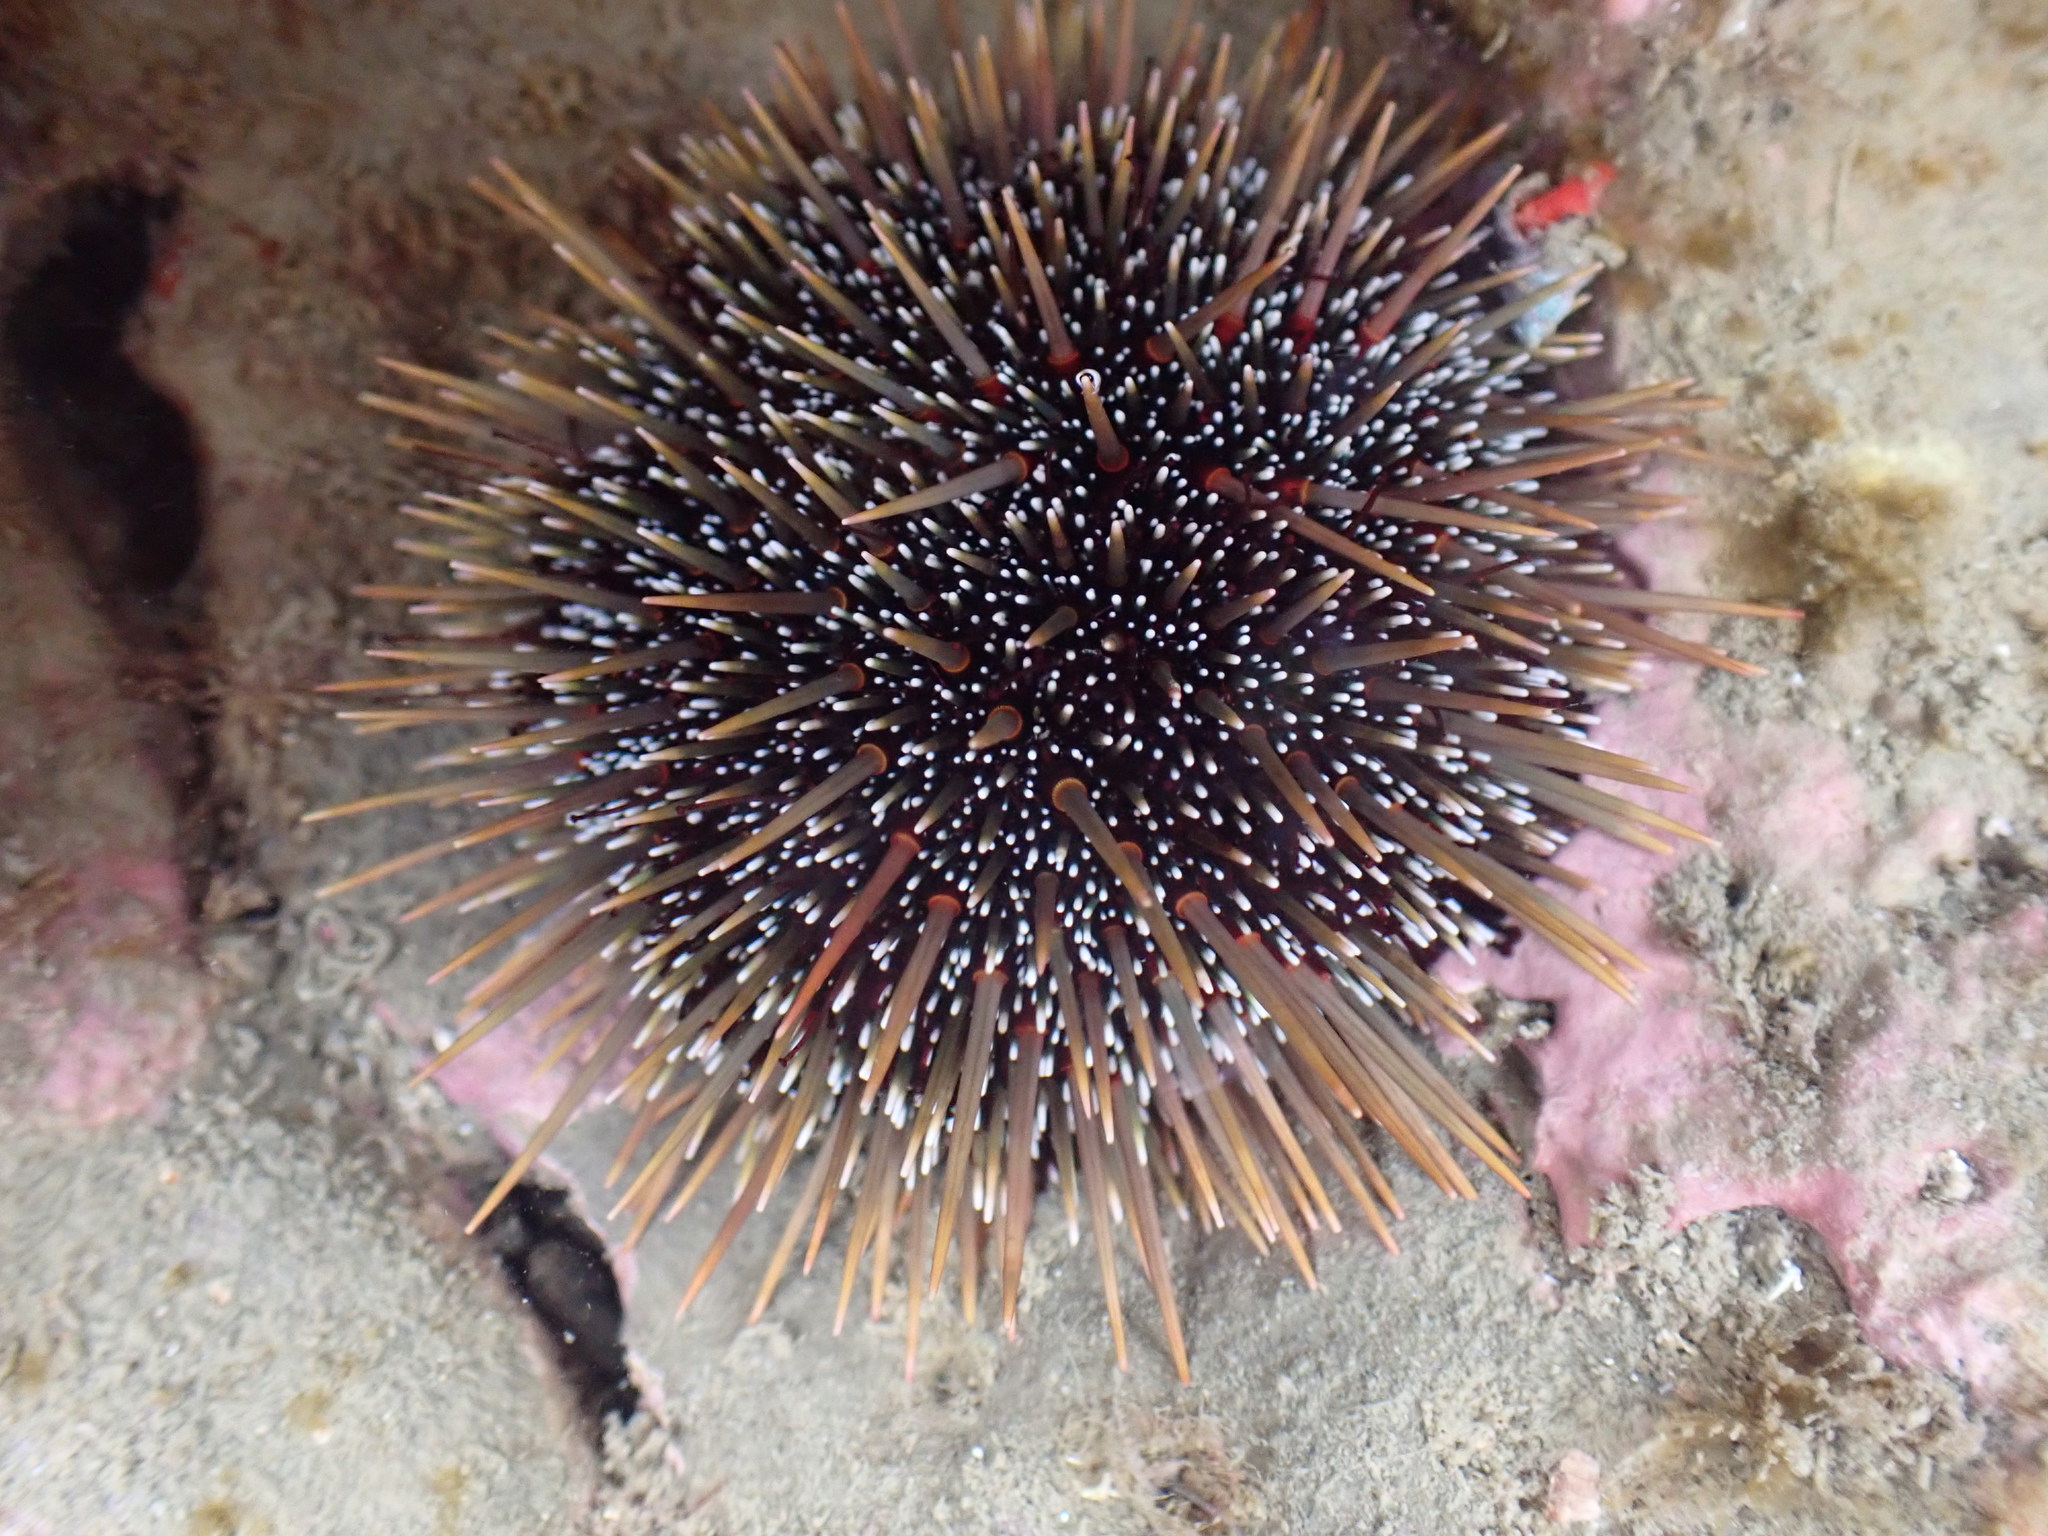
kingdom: Animalia
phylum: Echinodermata
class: Echinoidea
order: Camarodonta
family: Echinometridae
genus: Evechinus
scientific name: Evechinus chloroticus
